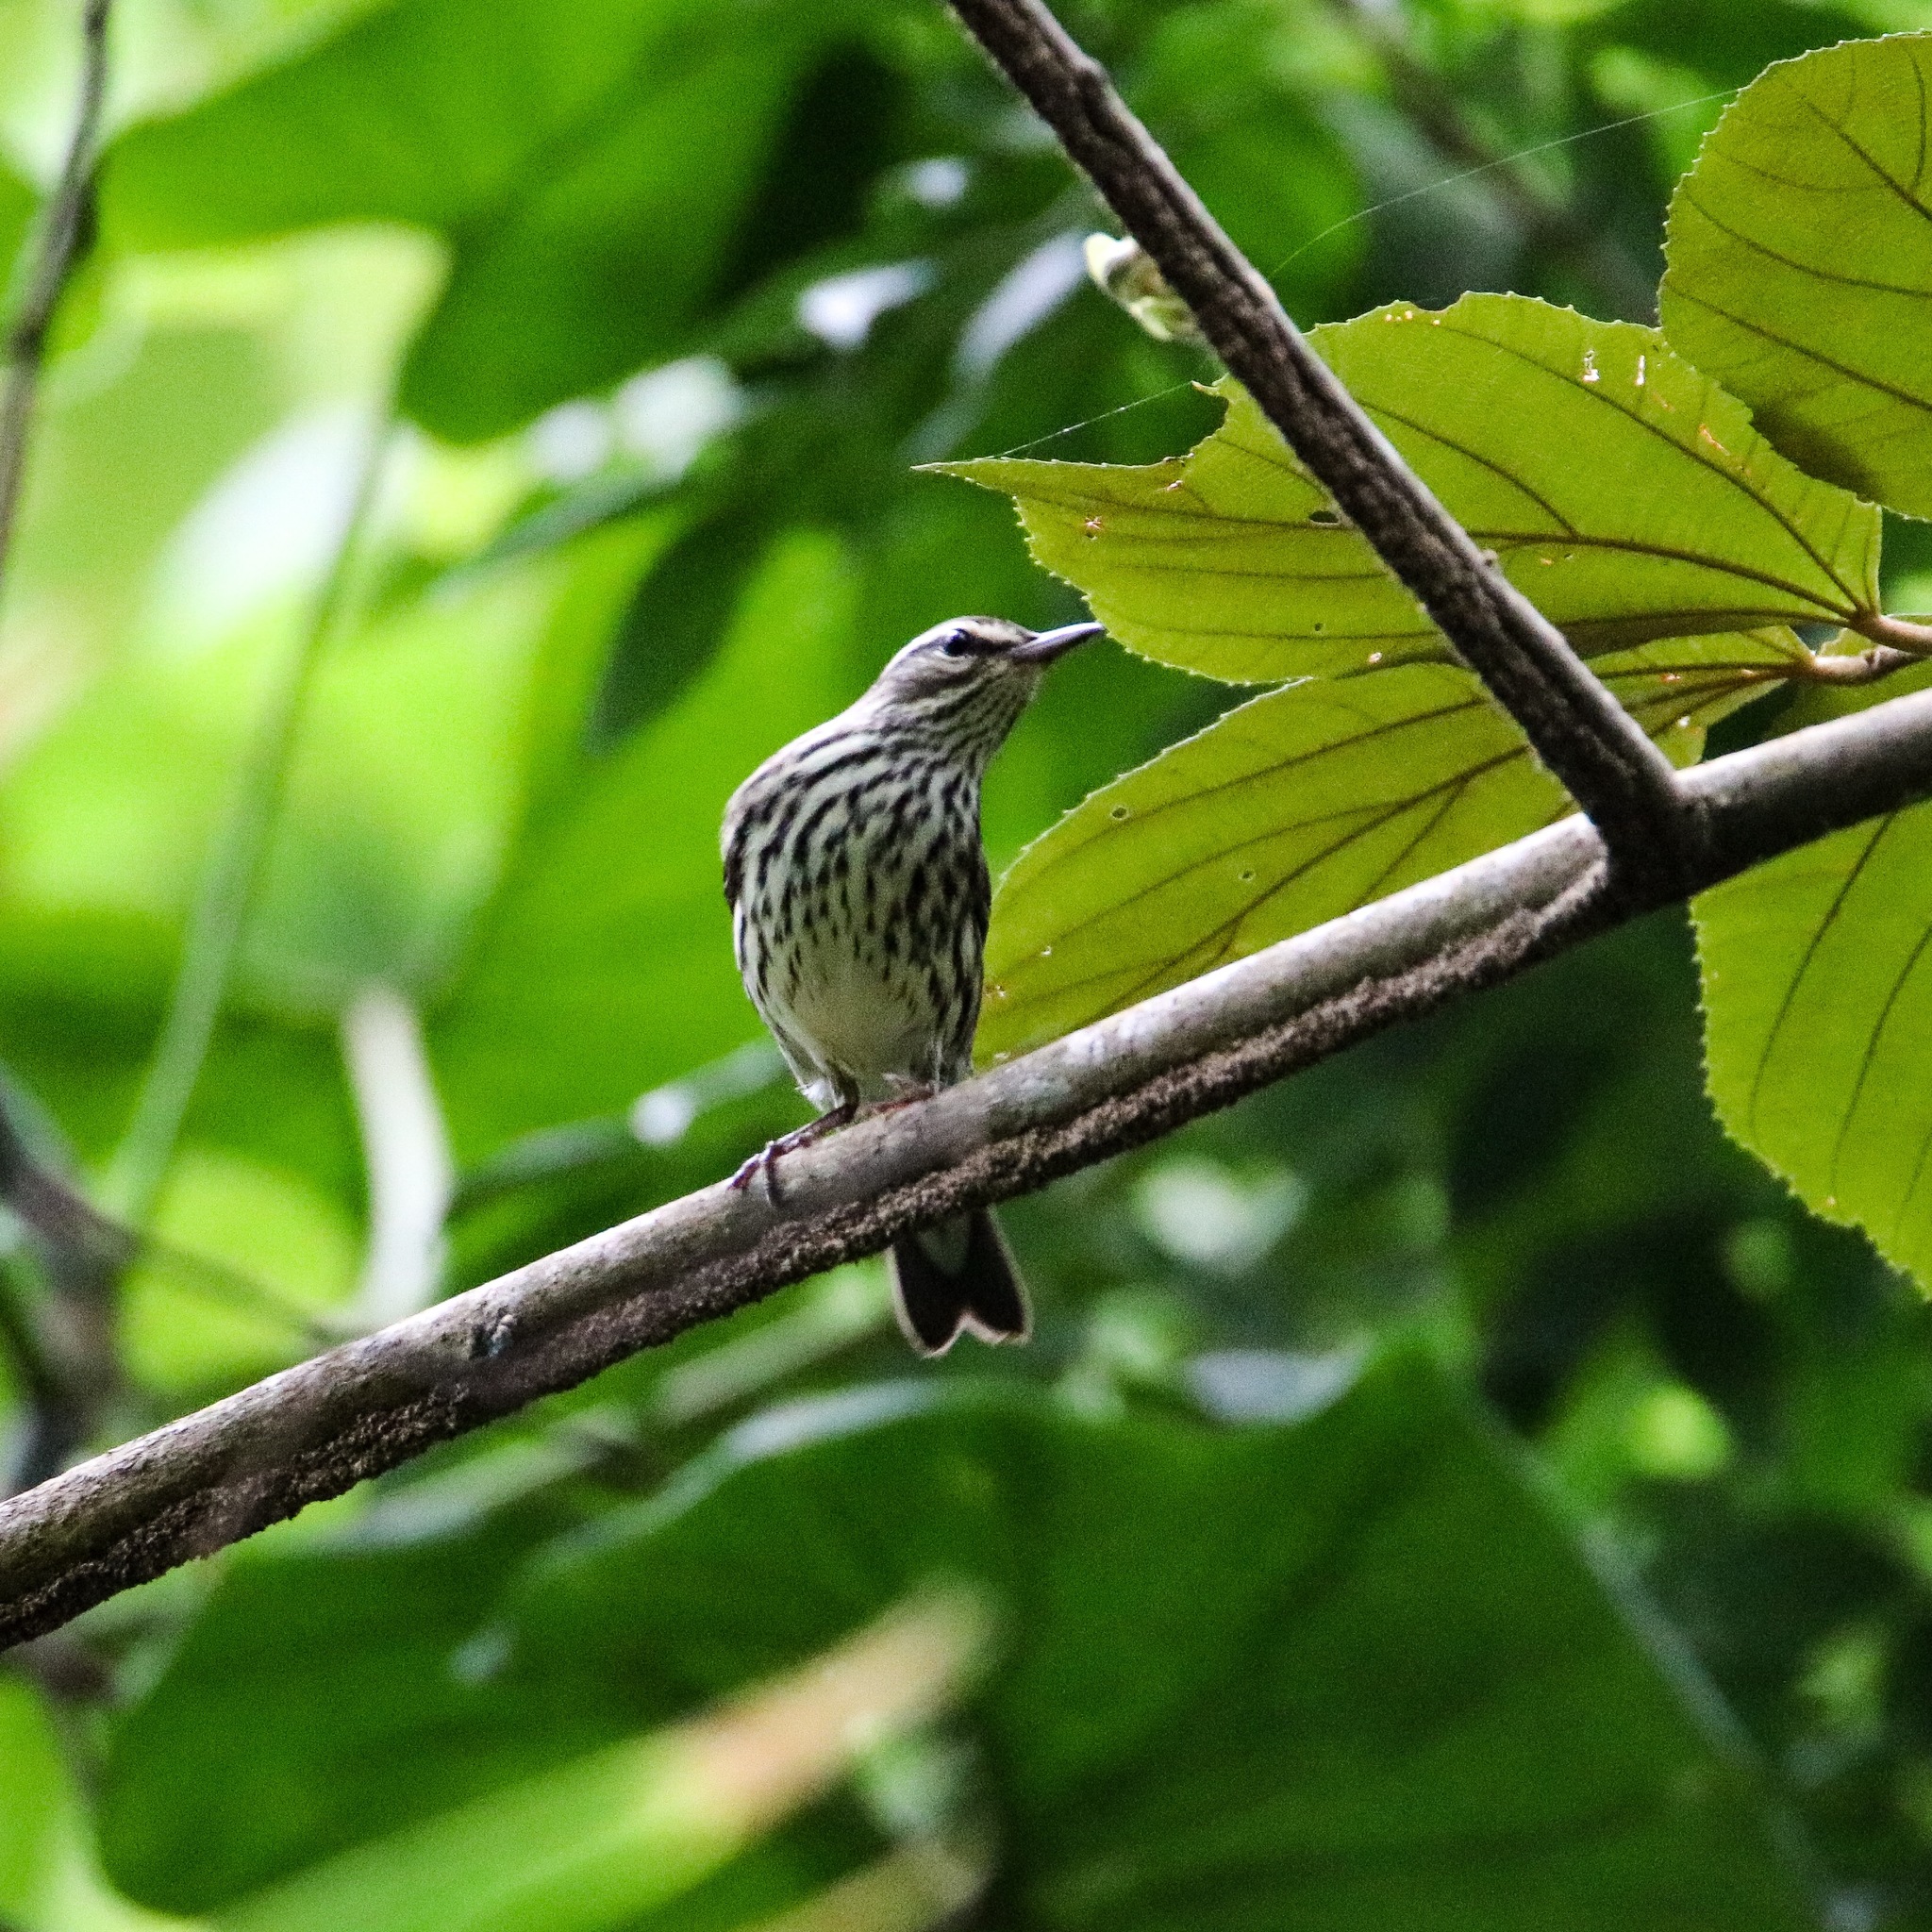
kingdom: Animalia
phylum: Chordata
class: Aves
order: Passeriformes
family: Parulidae
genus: Parkesia
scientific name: Parkesia noveboracensis
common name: Northern waterthrush
